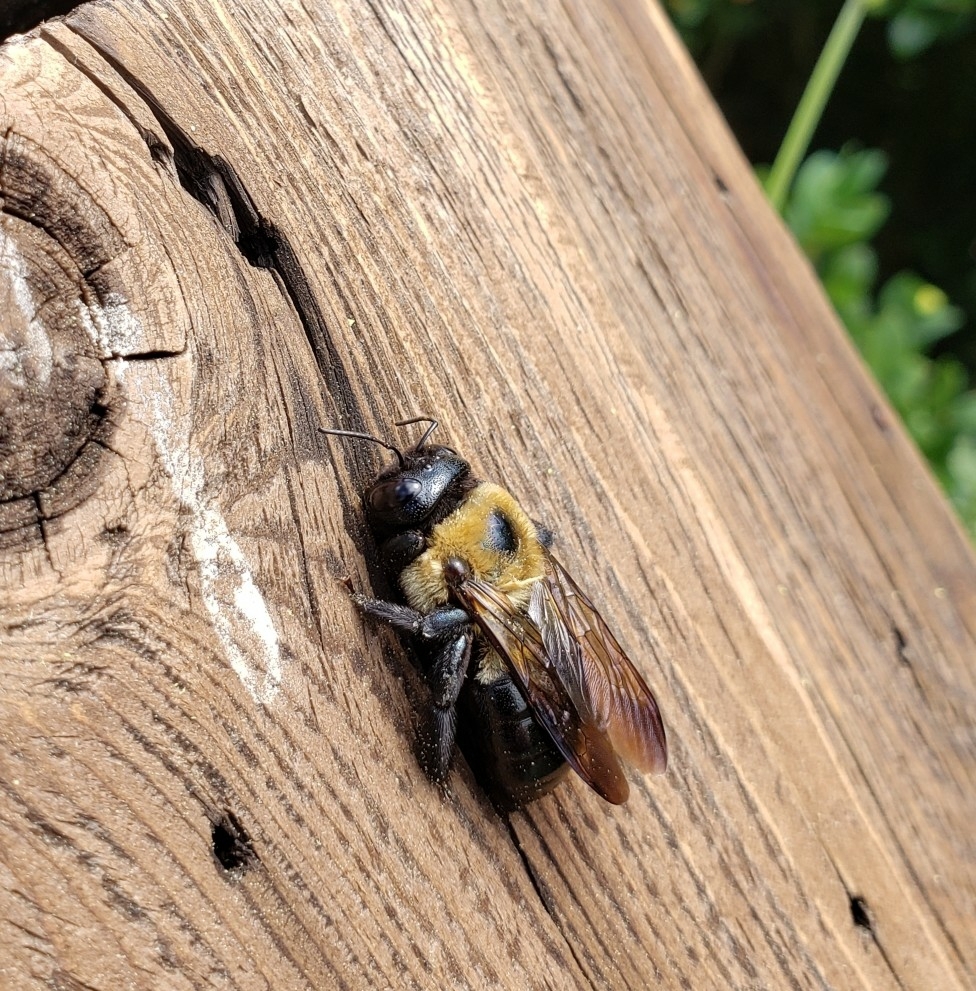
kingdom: Animalia
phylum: Arthropoda
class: Insecta
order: Hymenoptera
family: Apidae
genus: Xylocopa
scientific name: Xylocopa virginica
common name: Carpenter bee
